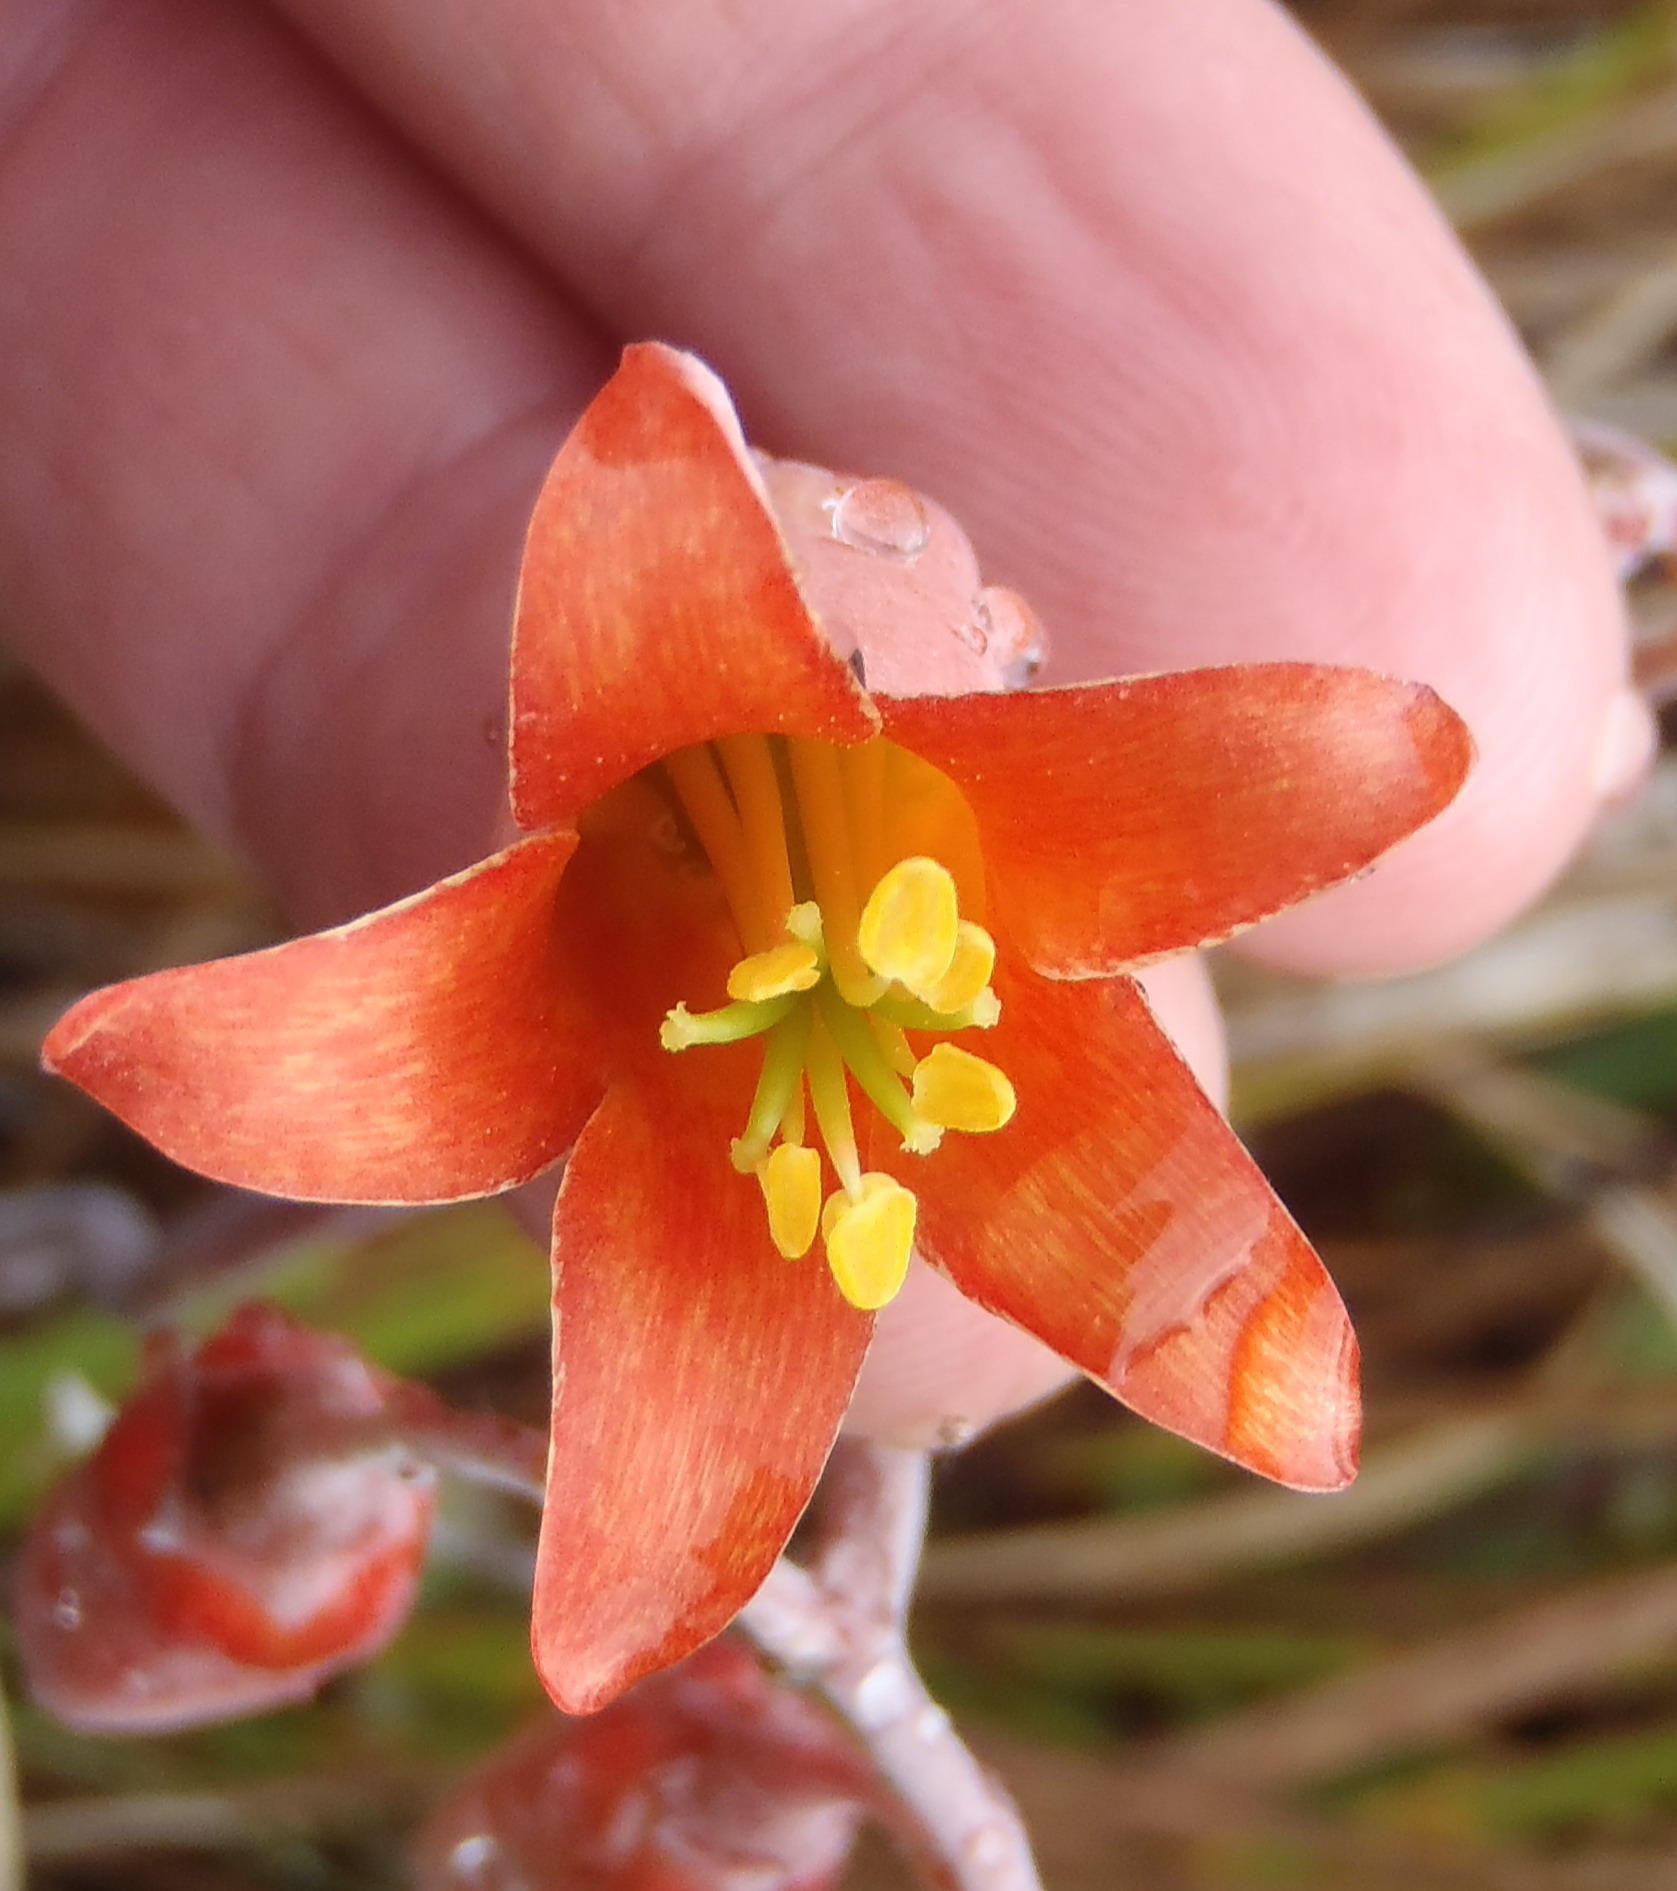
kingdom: Plantae
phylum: Tracheophyta
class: Magnoliopsida
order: Saxifragales
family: Crassulaceae
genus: Cotyledon
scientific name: Cotyledon orbiculata
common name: Pig's ear
